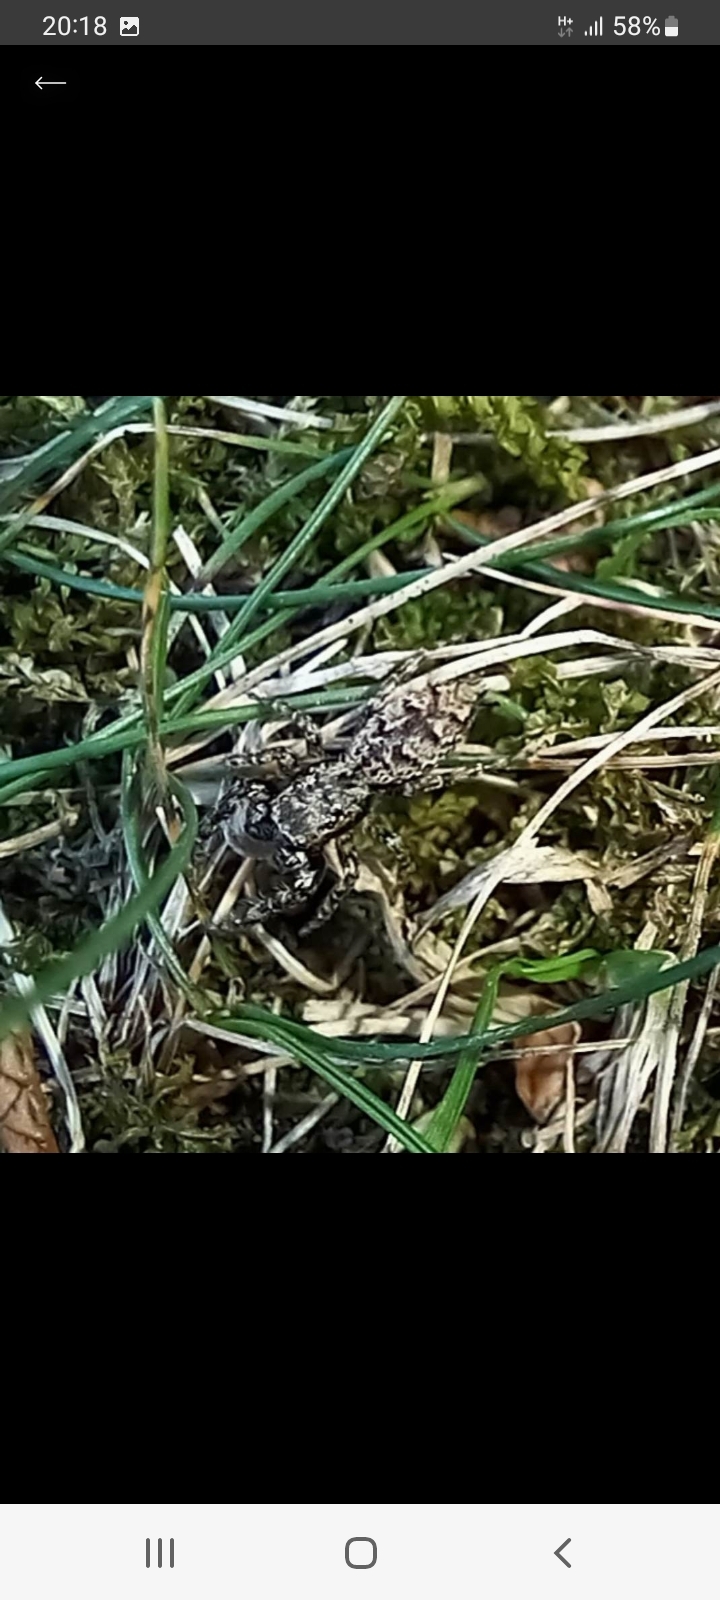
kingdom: Animalia
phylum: Arthropoda
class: Arachnida
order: Araneae
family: Salticidae
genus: Marpissa
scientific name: Marpissa muscosa
